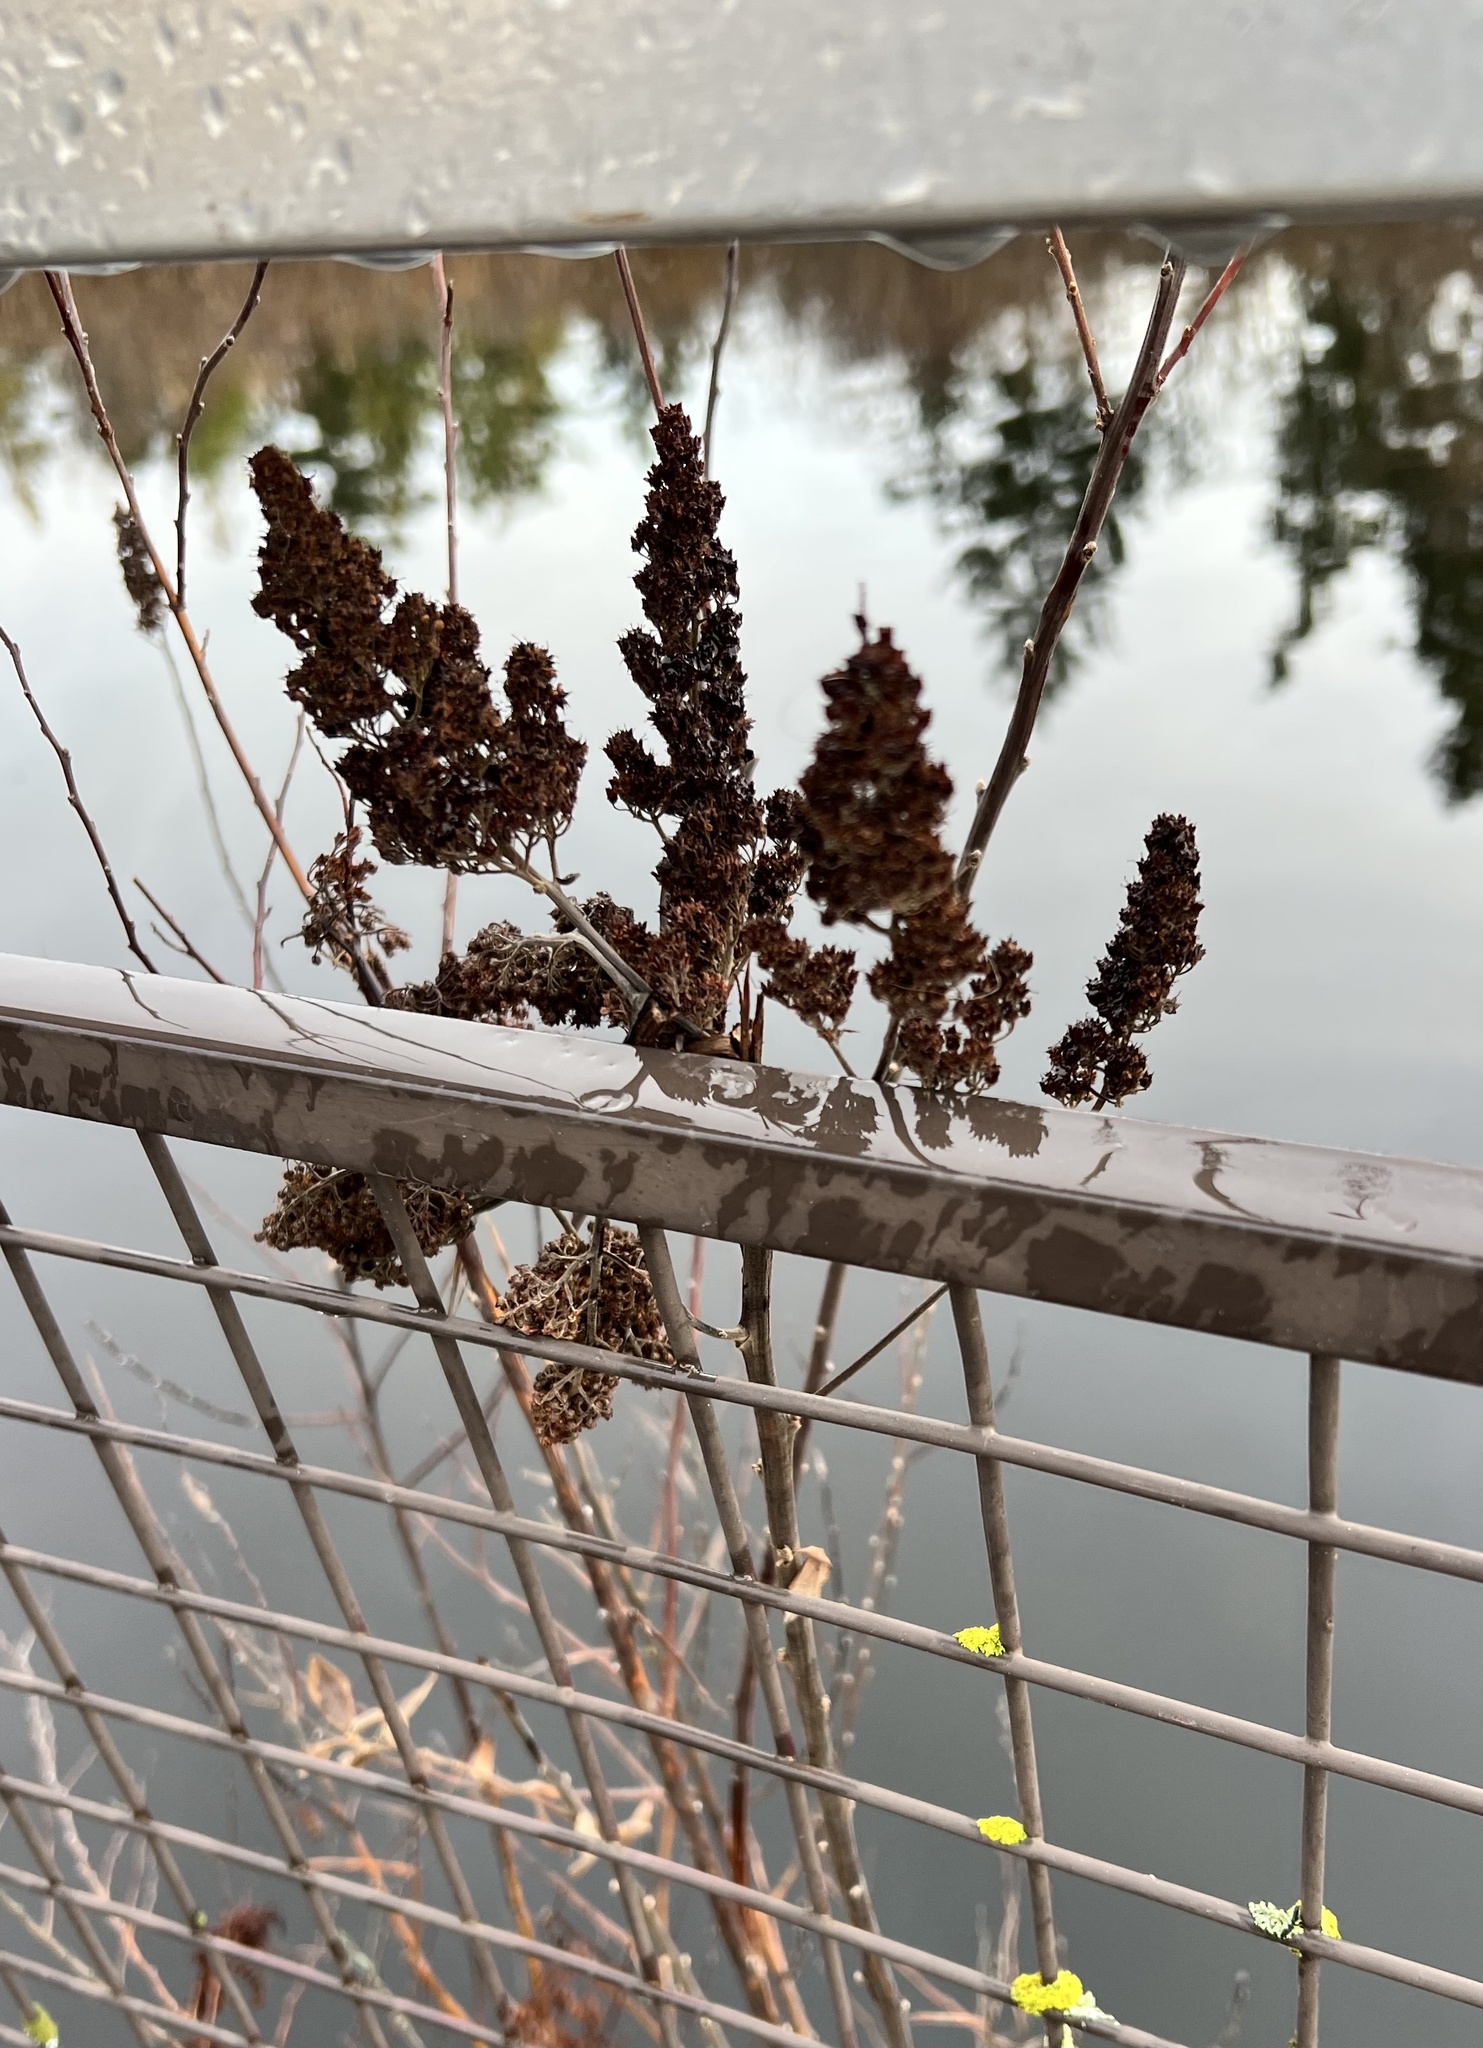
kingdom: Plantae
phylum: Tracheophyta
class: Magnoliopsida
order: Rosales
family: Rosaceae
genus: Spiraea
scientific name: Spiraea douglasii
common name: Steeplebush
